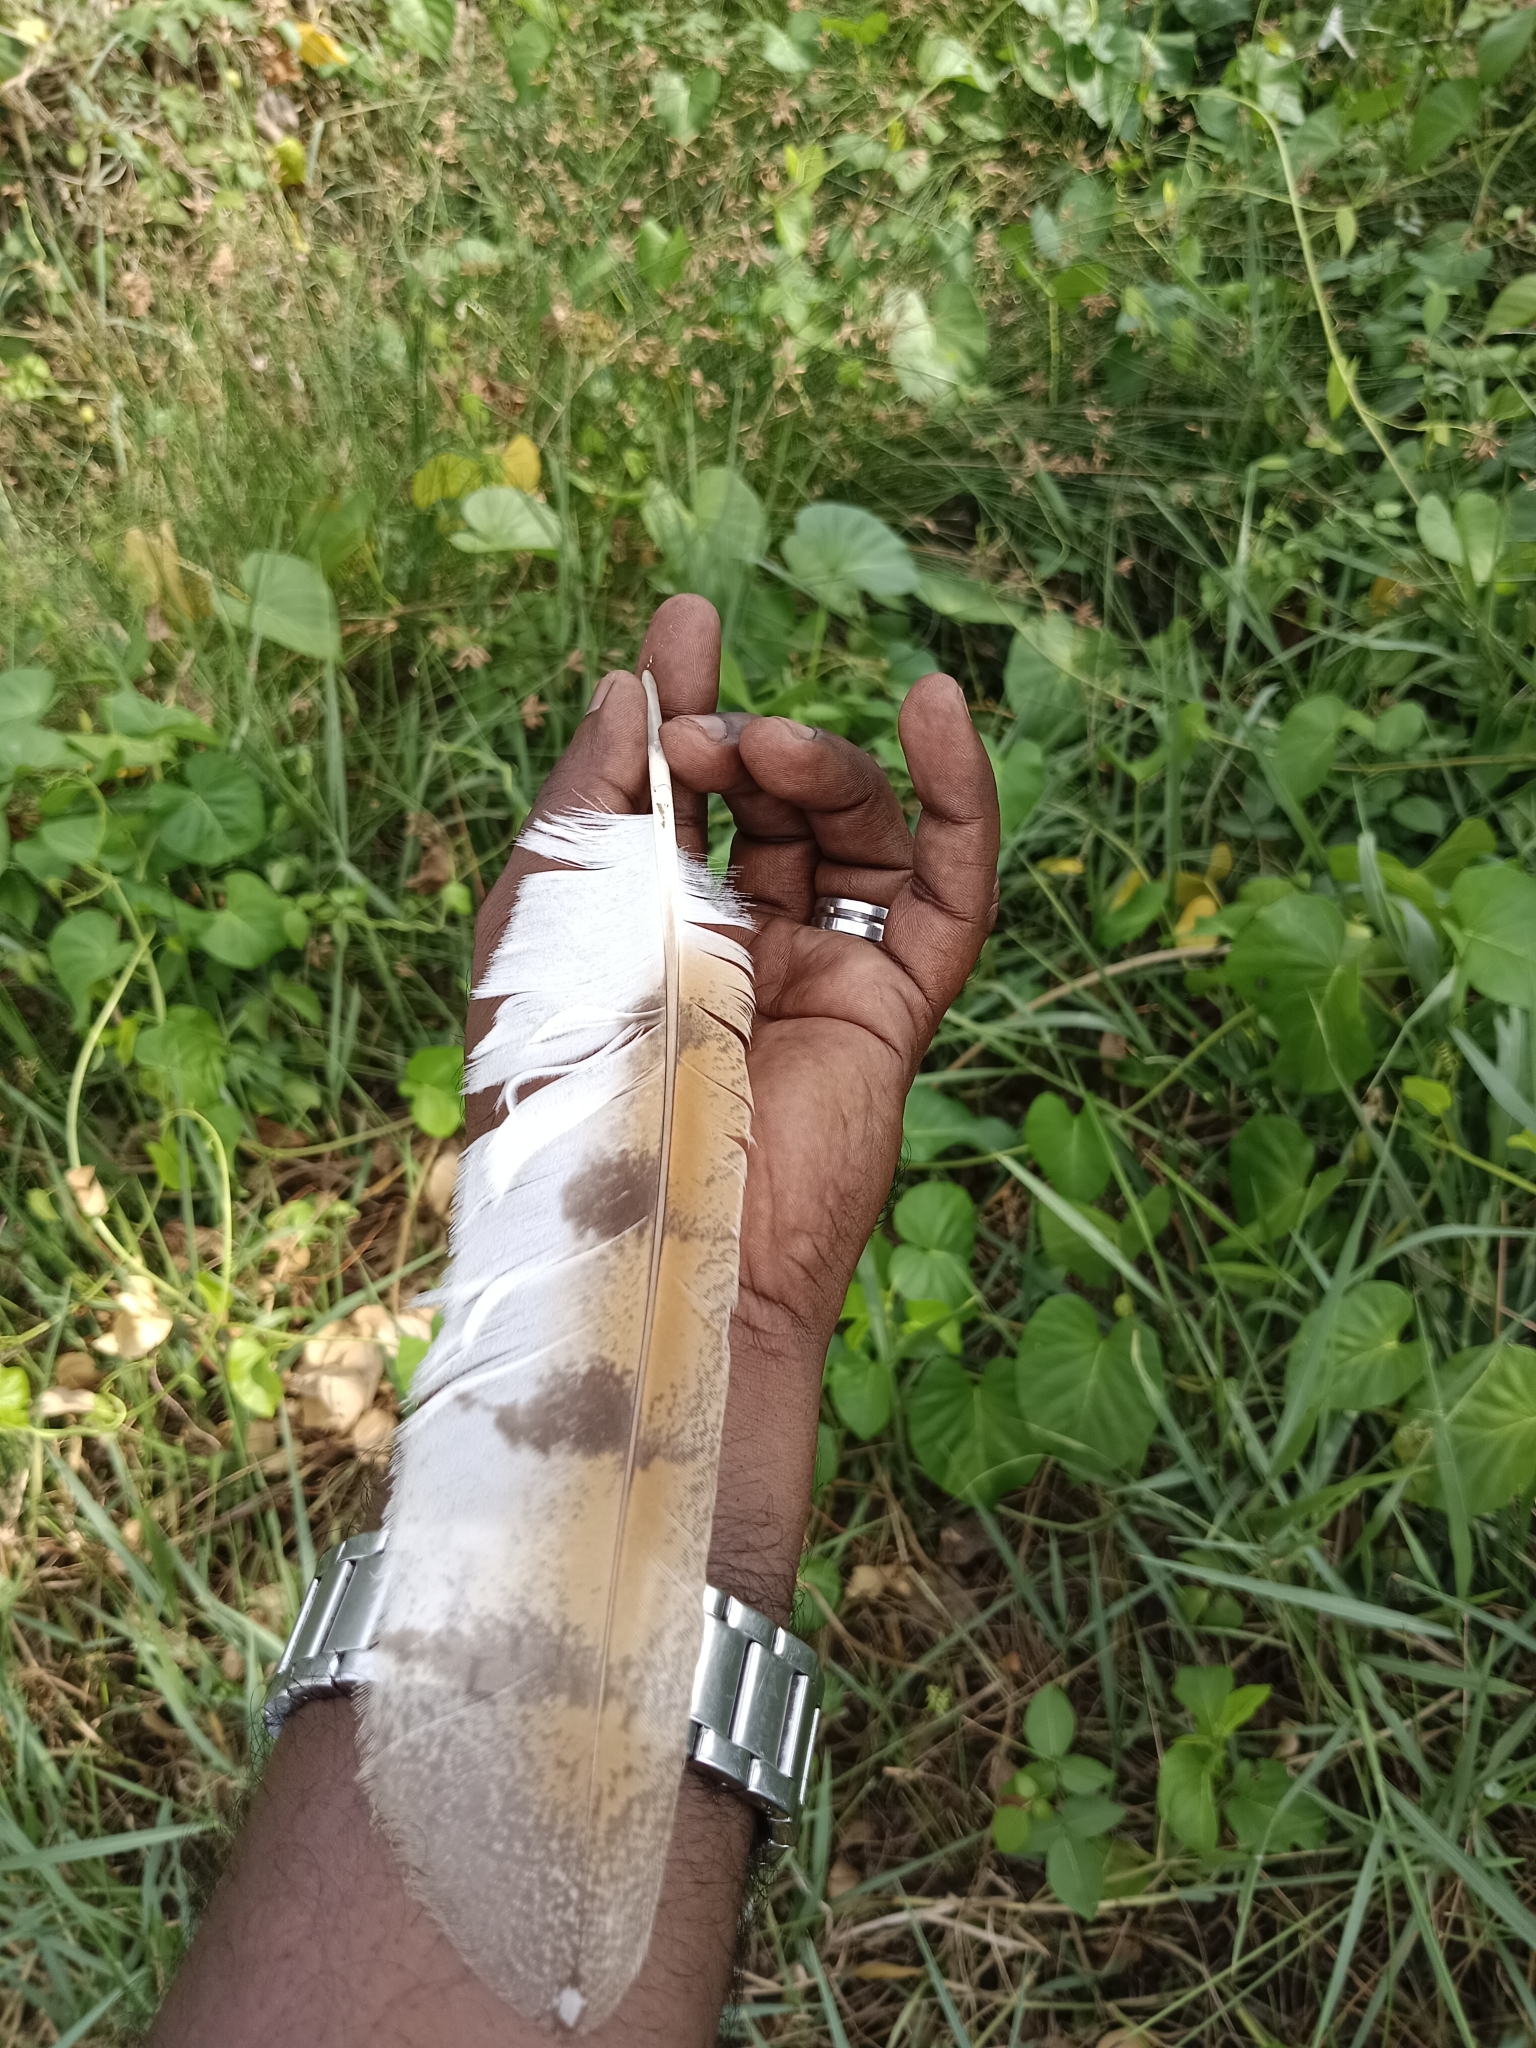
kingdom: Animalia
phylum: Chordata
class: Aves
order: Strigiformes
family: Tytonidae
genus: Tyto
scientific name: Tyto alba
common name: Barn owl
